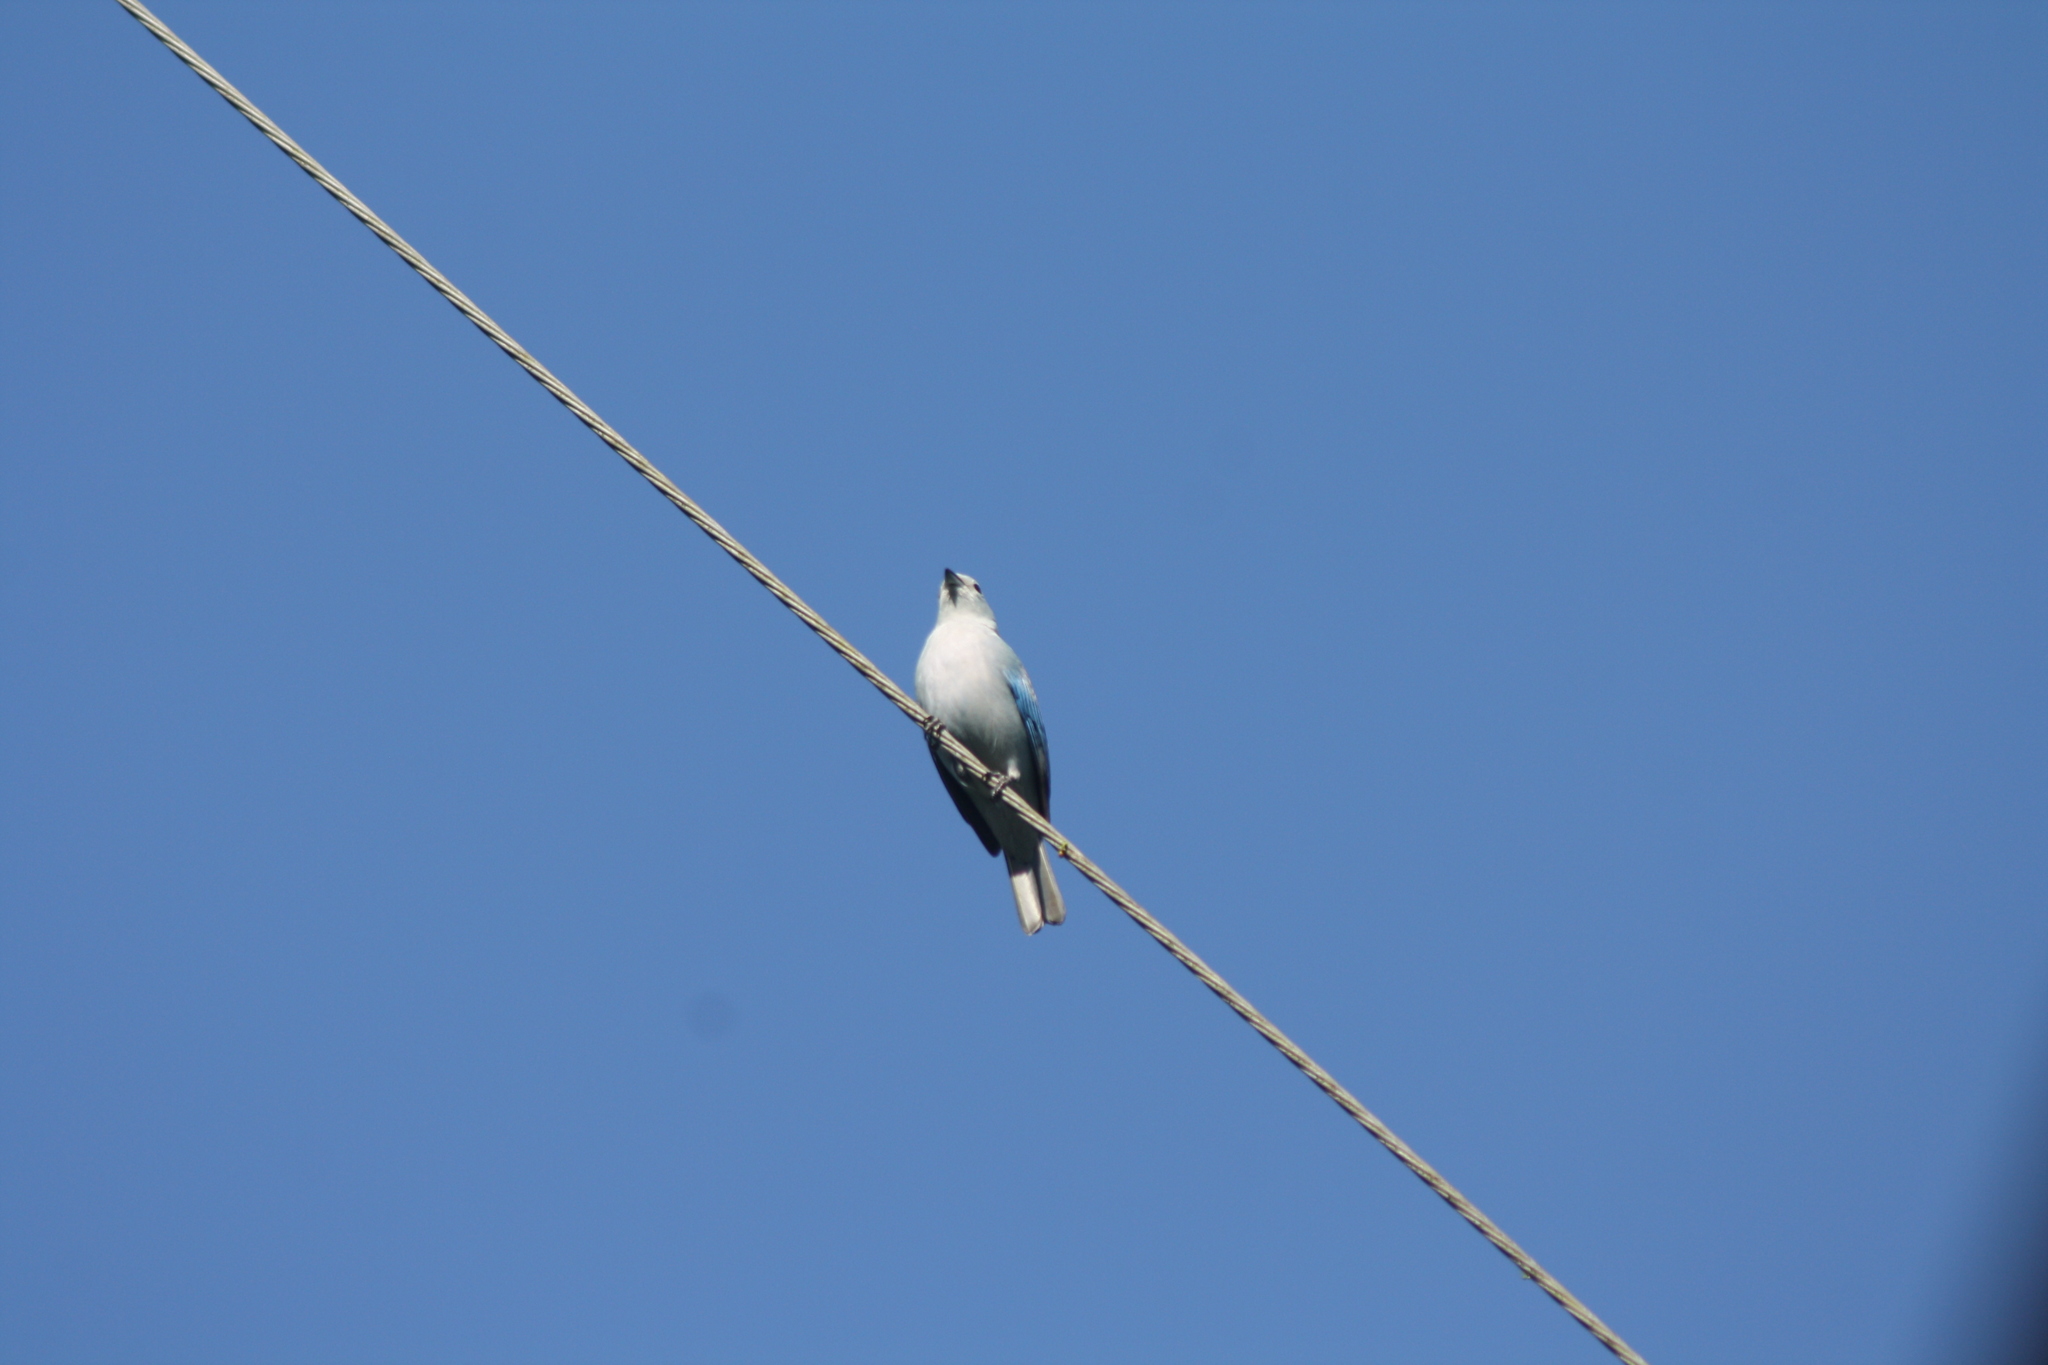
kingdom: Animalia
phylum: Chordata
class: Aves
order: Passeriformes
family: Thraupidae
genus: Thraupis
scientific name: Thraupis episcopus
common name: Blue-grey tanager
